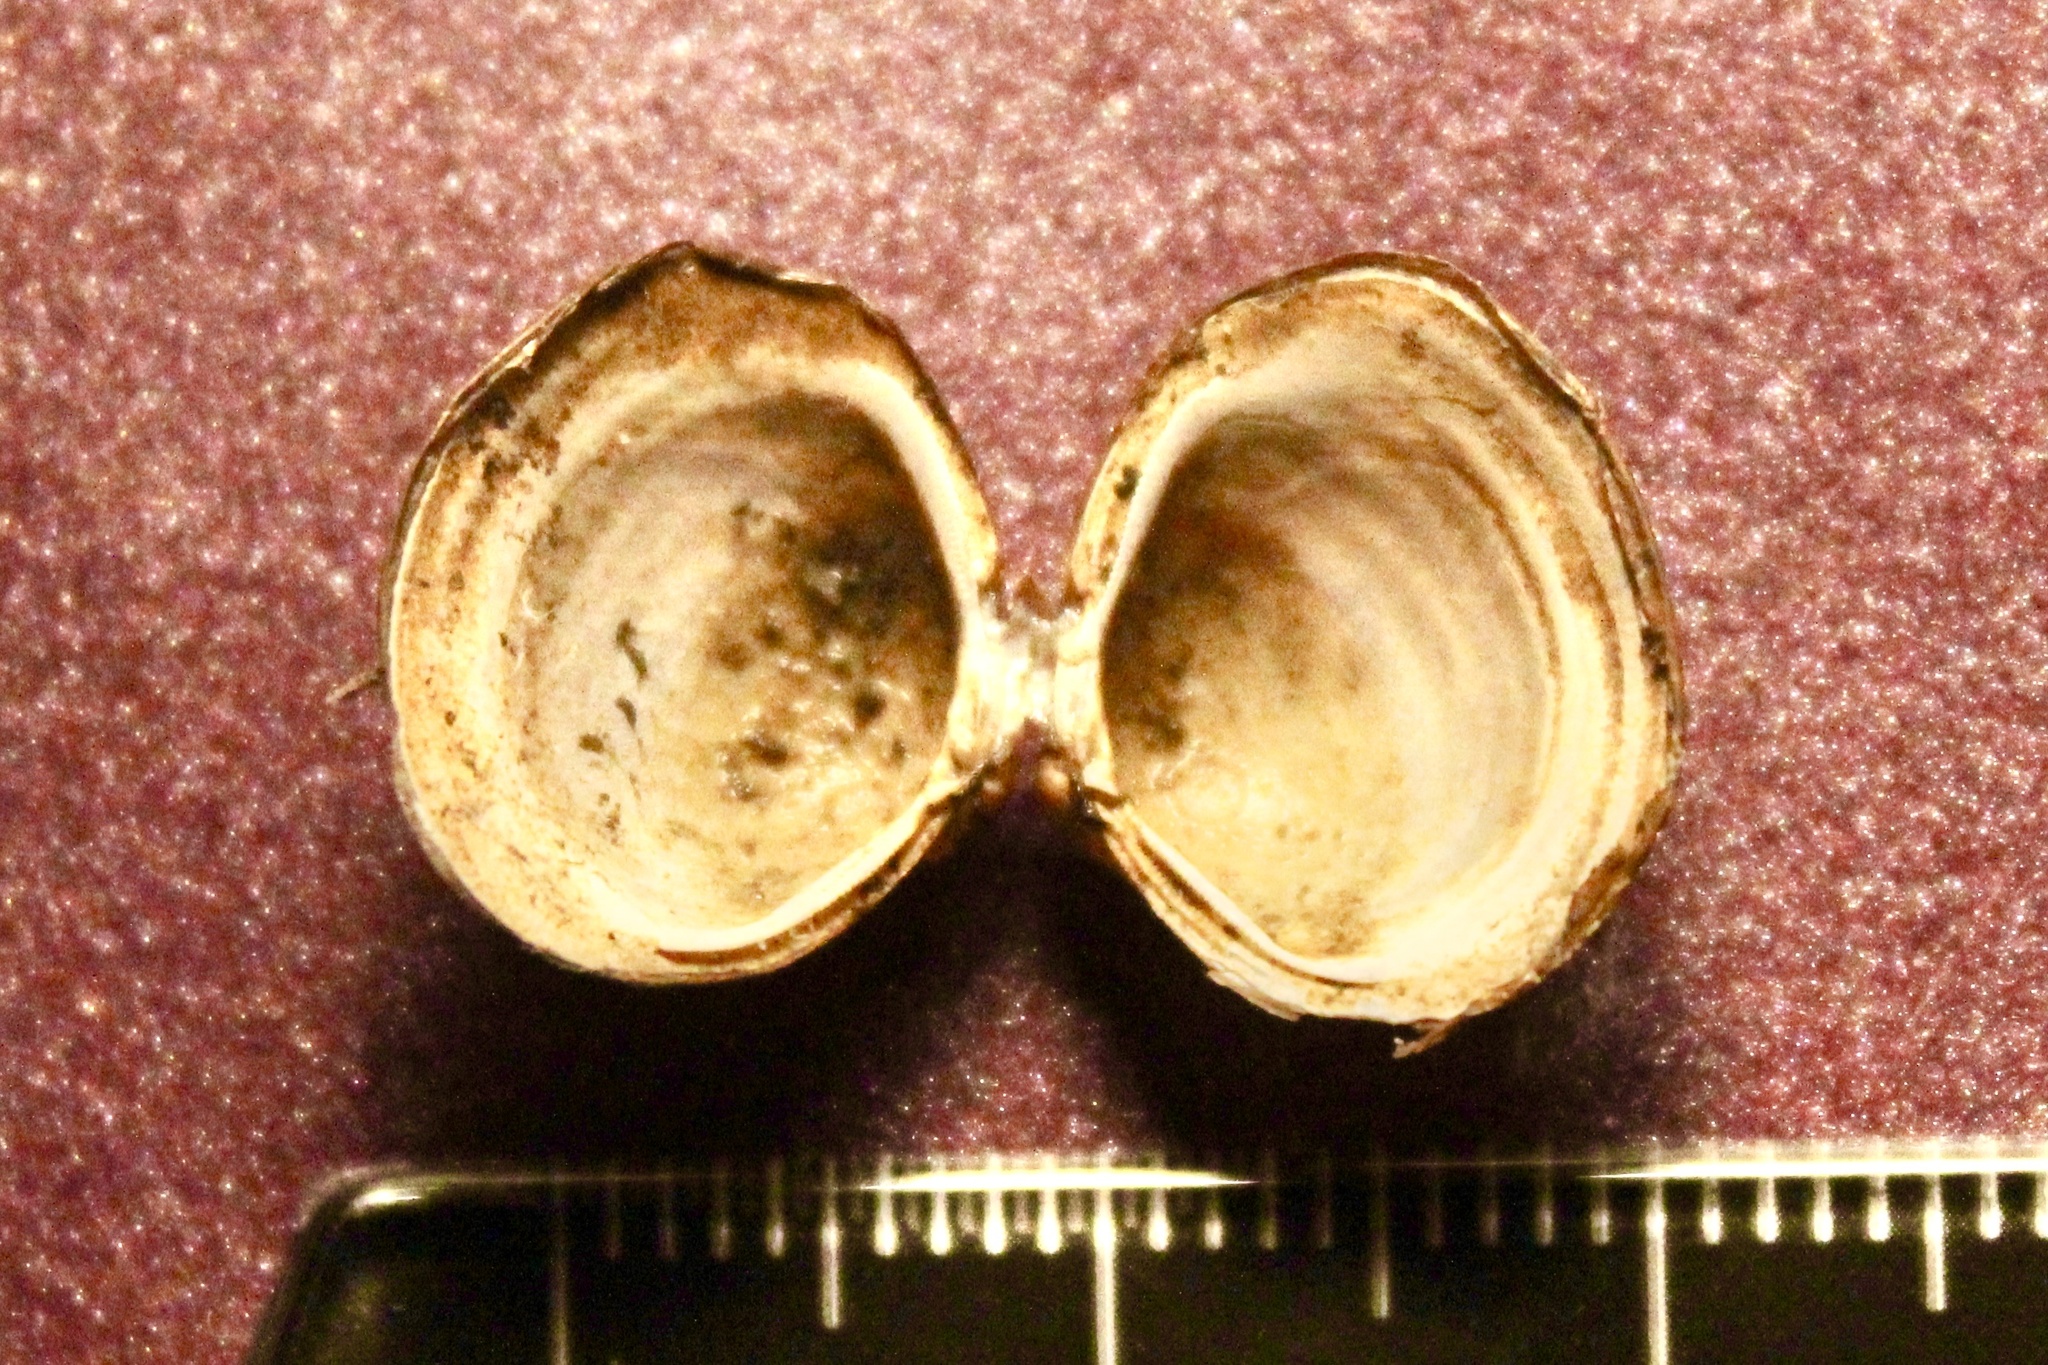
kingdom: Animalia
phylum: Mollusca
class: Bivalvia
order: Venerida
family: Cyrenidae
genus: Corbicula
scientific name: Corbicula fluminea
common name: Asian clam
